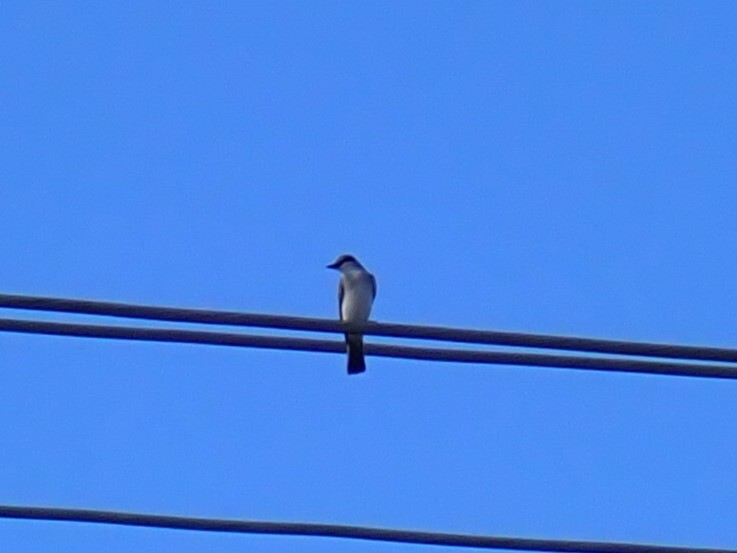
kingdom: Animalia
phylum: Chordata
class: Aves
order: Passeriformes
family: Tyrannidae
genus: Tyrannus
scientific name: Tyrannus dominicensis
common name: Gray kingbird
